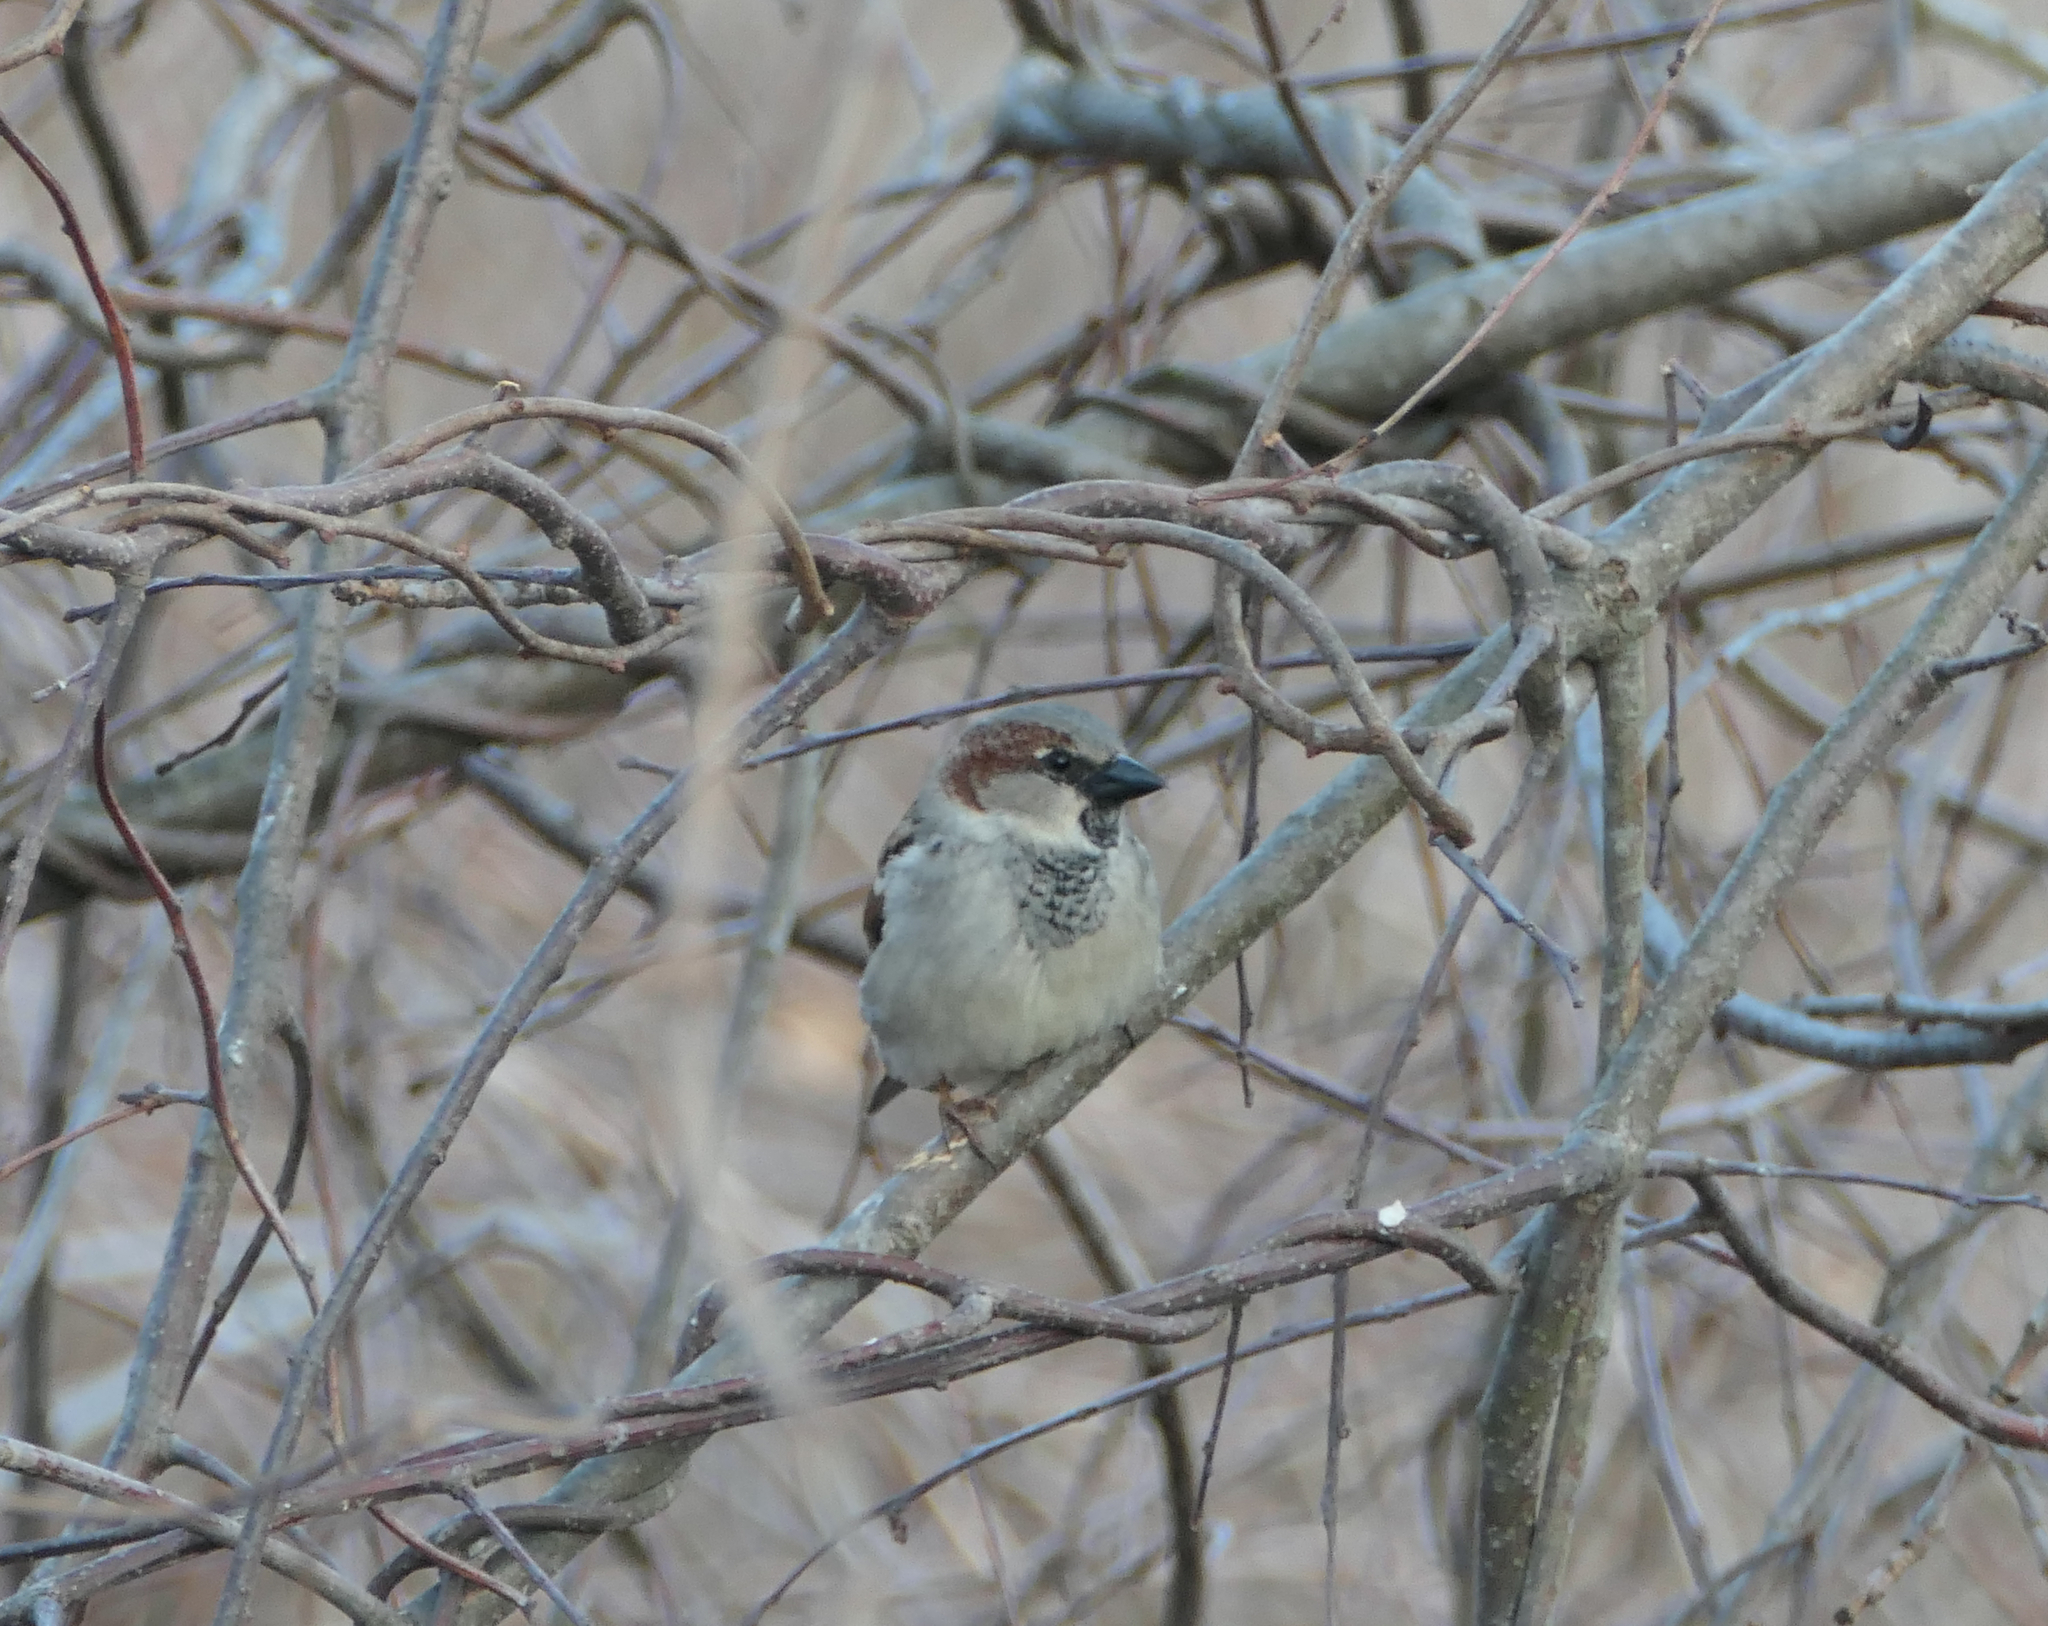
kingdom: Animalia
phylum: Chordata
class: Aves
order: Passeriformes
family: Passeridae
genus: Passer
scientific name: Passer domesticus
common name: House sparrow
